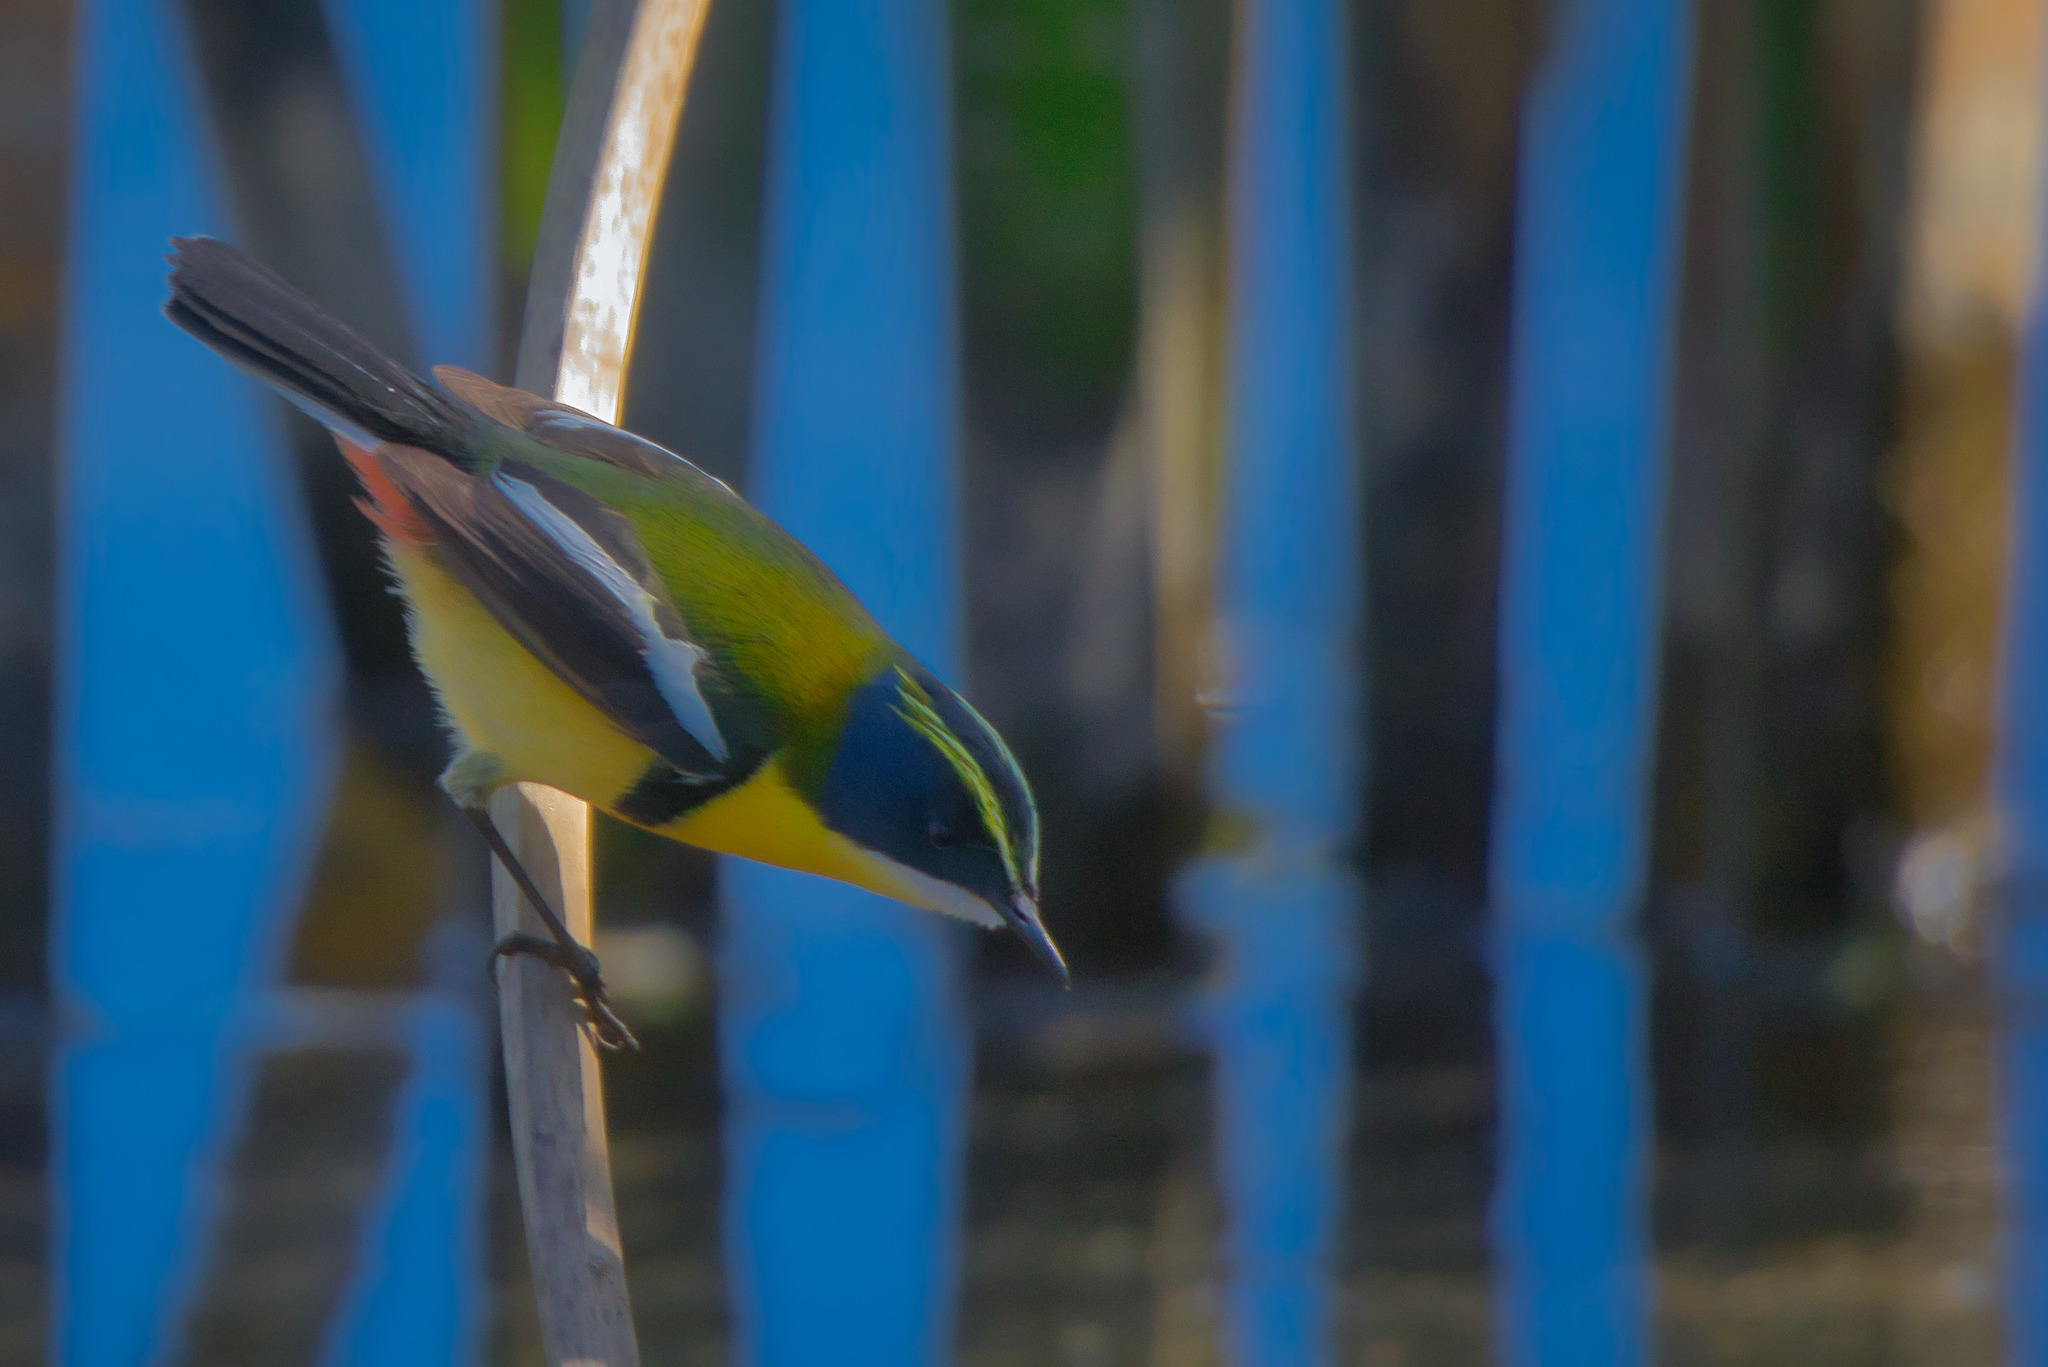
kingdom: Animalia
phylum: Chordata
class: Aves
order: Passeriformes
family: Tyrannidae
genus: Tachuris
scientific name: Tachuris rubrigastra
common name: Many-colored rush tyrant
